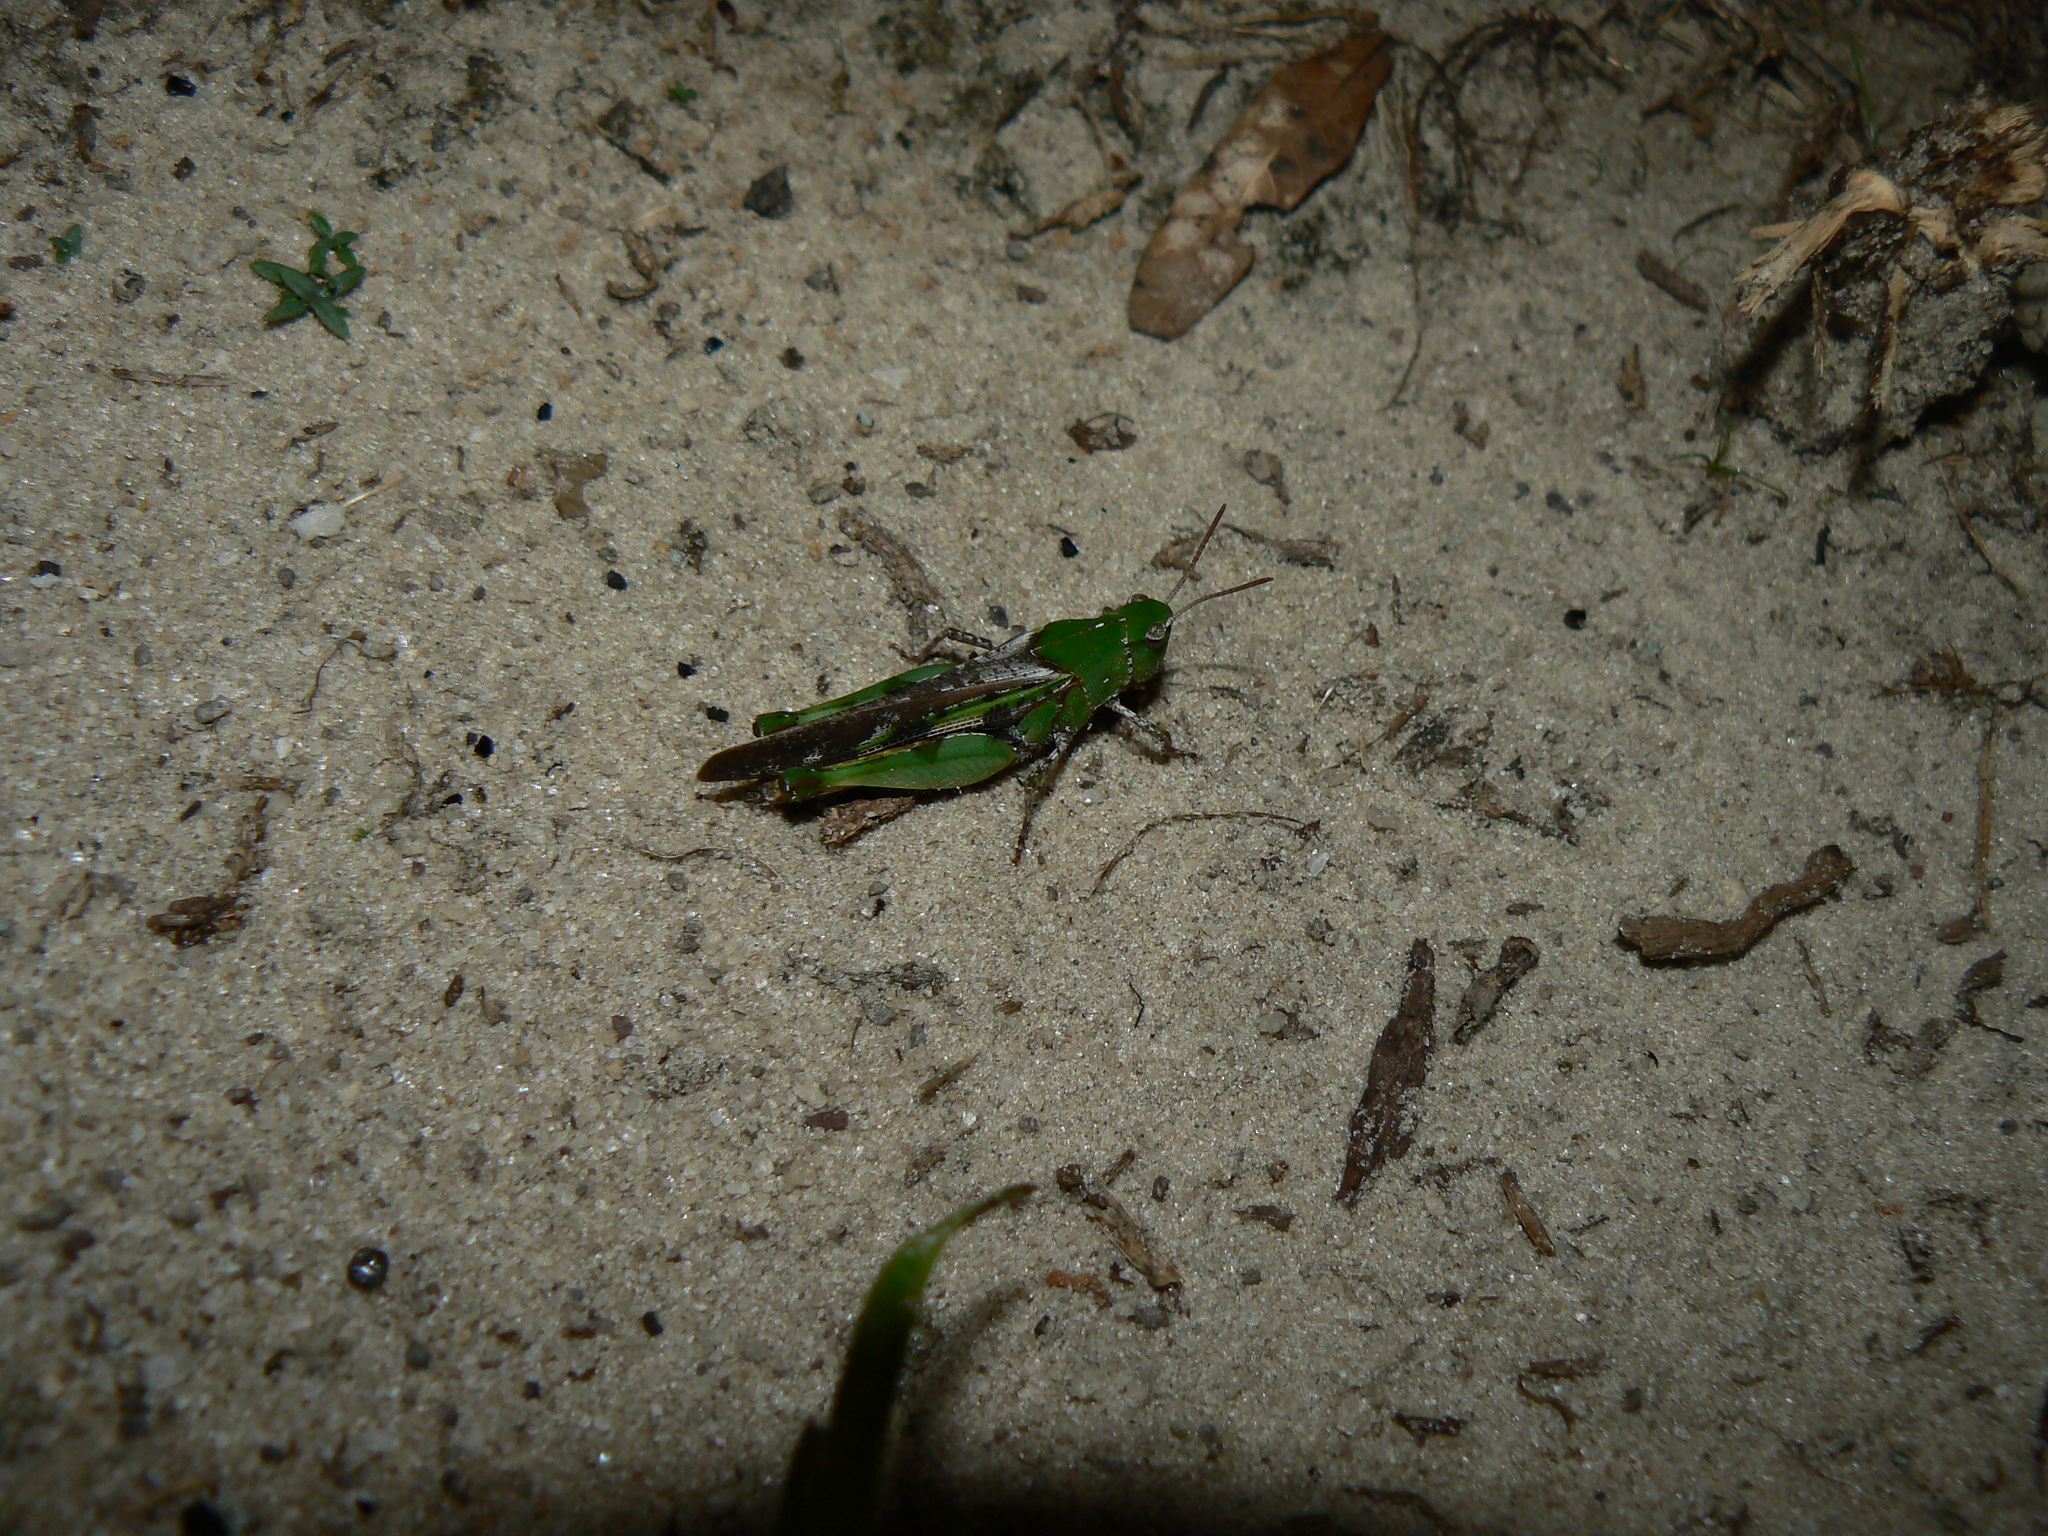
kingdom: Animalia
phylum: Arthropoda
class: Insecta
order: Orthoptera
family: Acrididae
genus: Chortophaga
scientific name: Chortophaga australior
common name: Southern green-striped grasshopper
